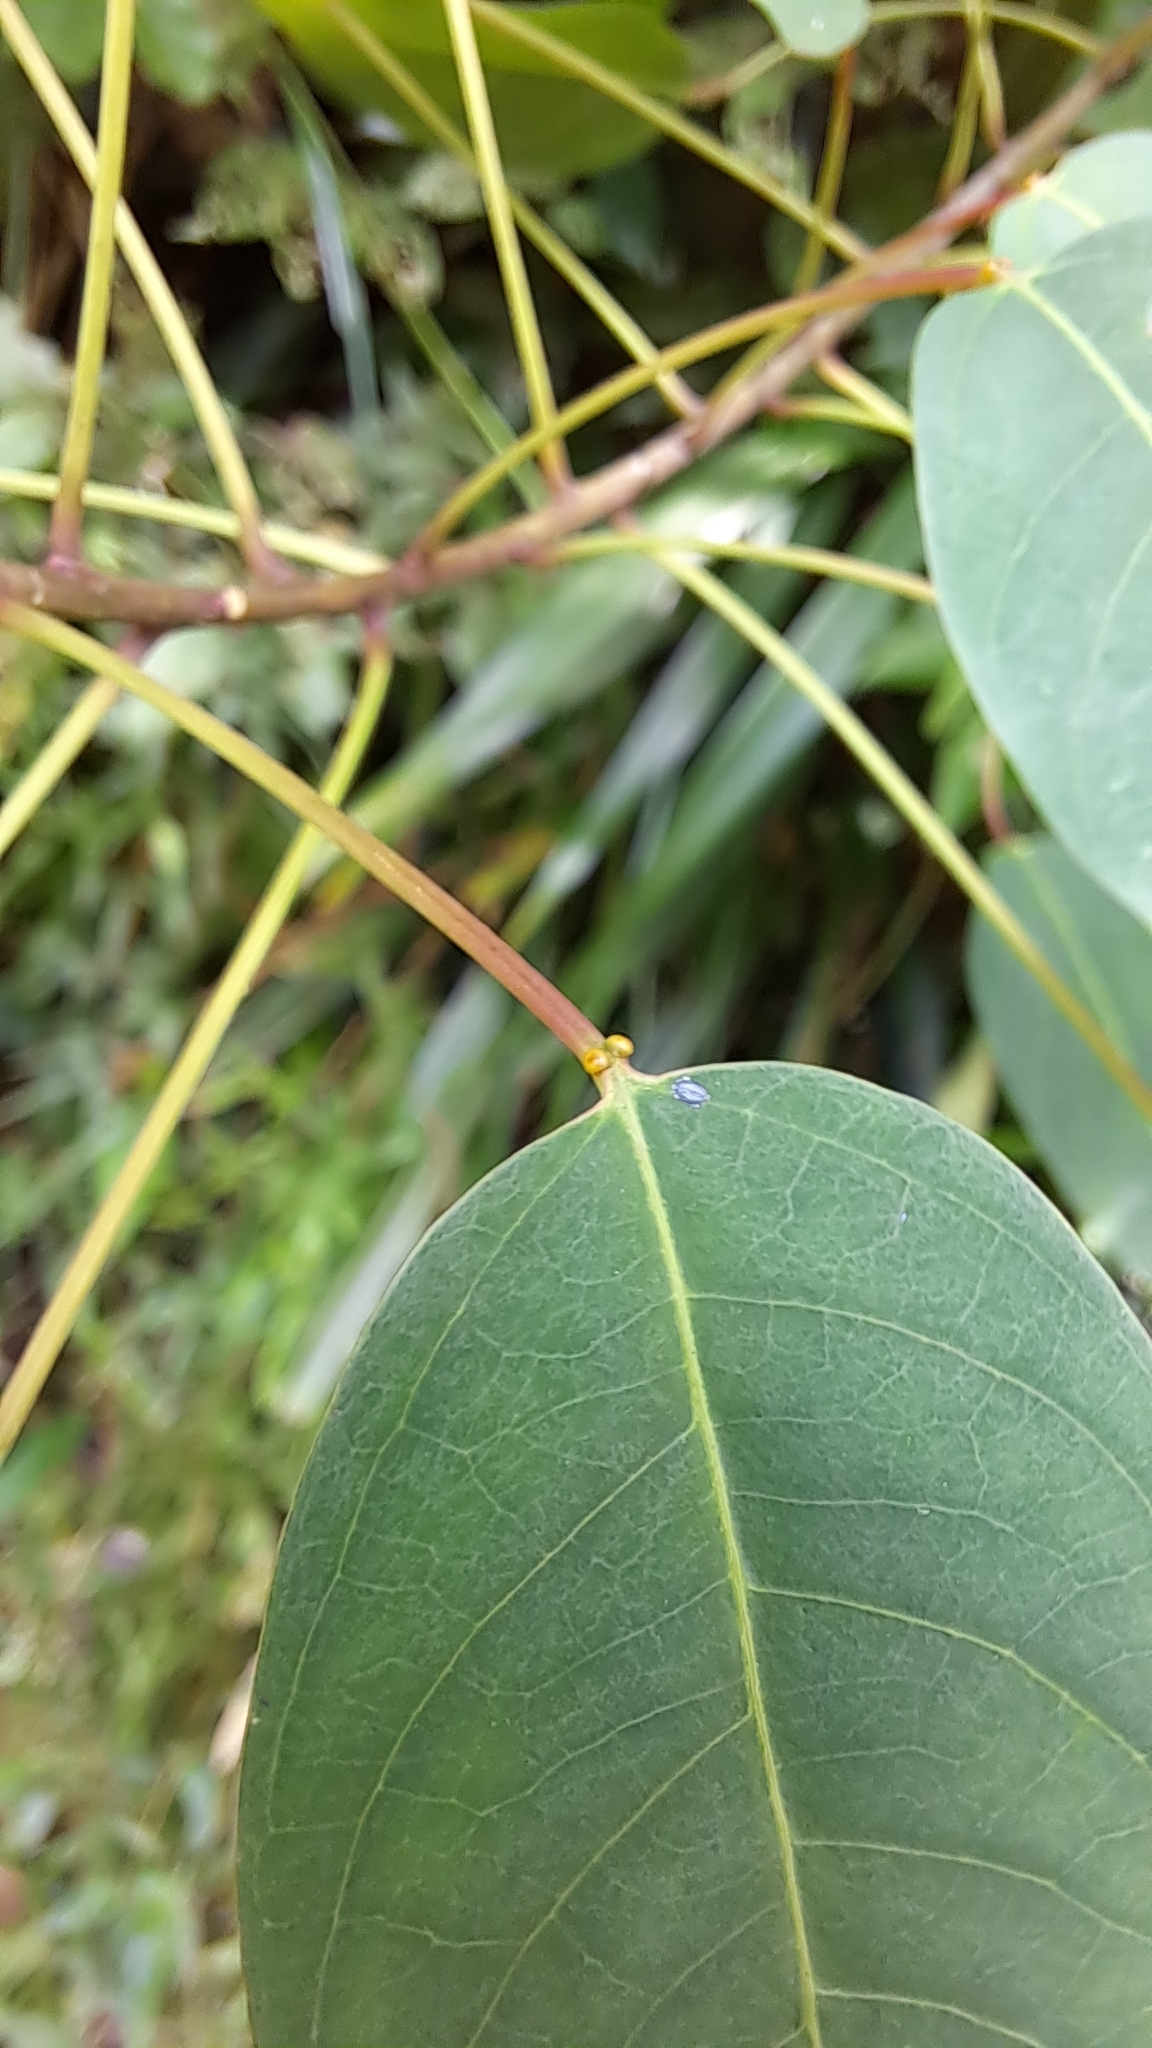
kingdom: Plantae
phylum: Tracheophyta
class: Magnoliopsida
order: Malpighiales
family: Euphorbiaceae
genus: Triadica
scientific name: Triadica cochinchinensis
